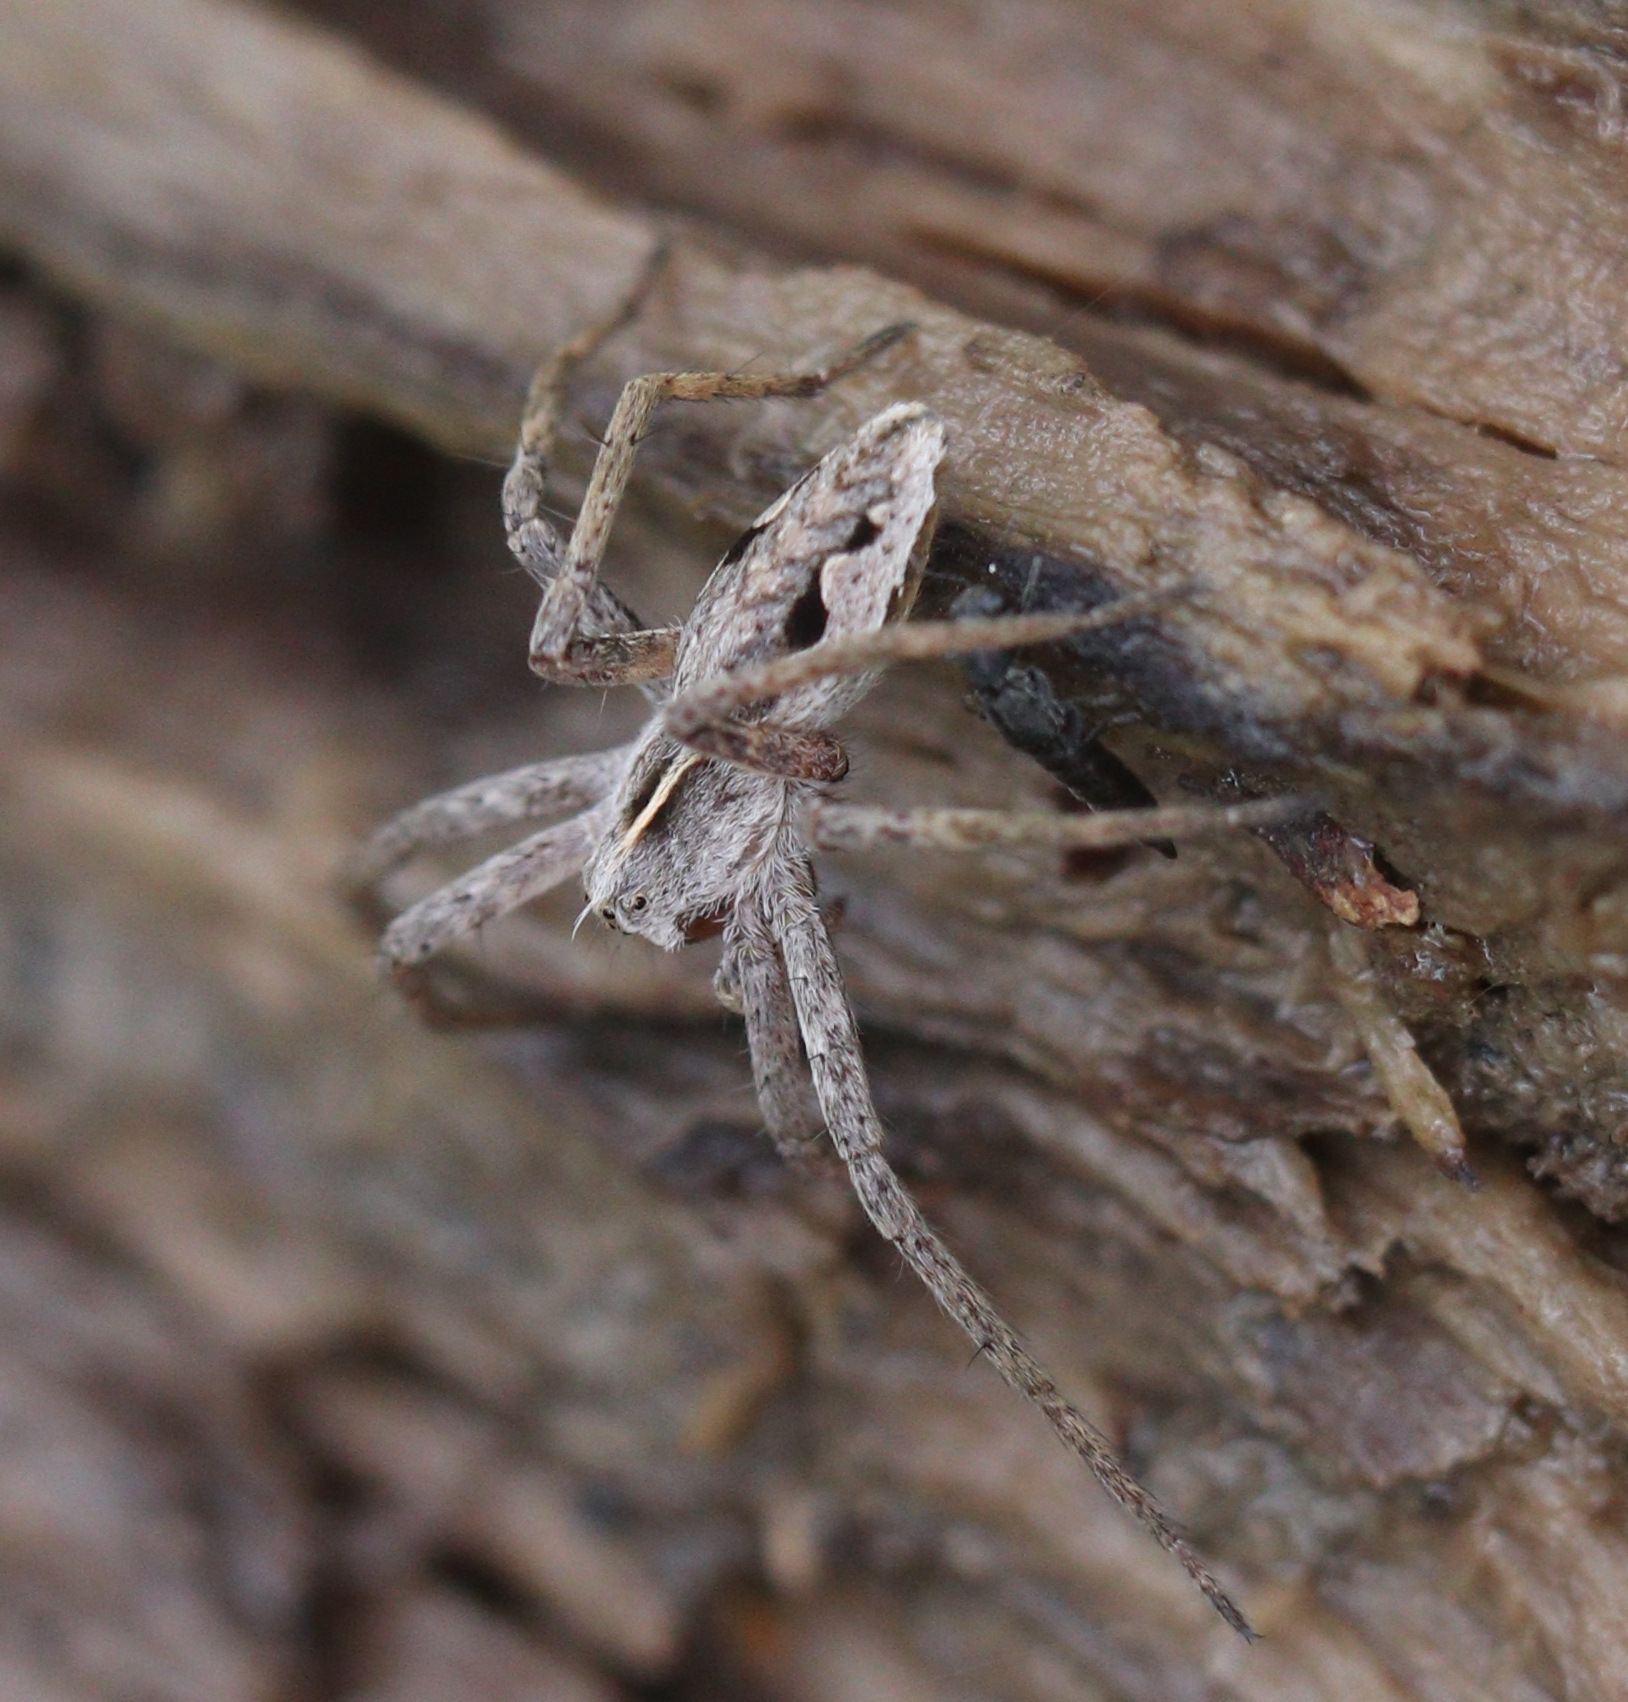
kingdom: Animalia
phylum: Arthropoda
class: Arachnida
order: Araneae
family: Pisauridae
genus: Pisaura
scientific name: Pisaura mirabilis
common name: Tent spider
